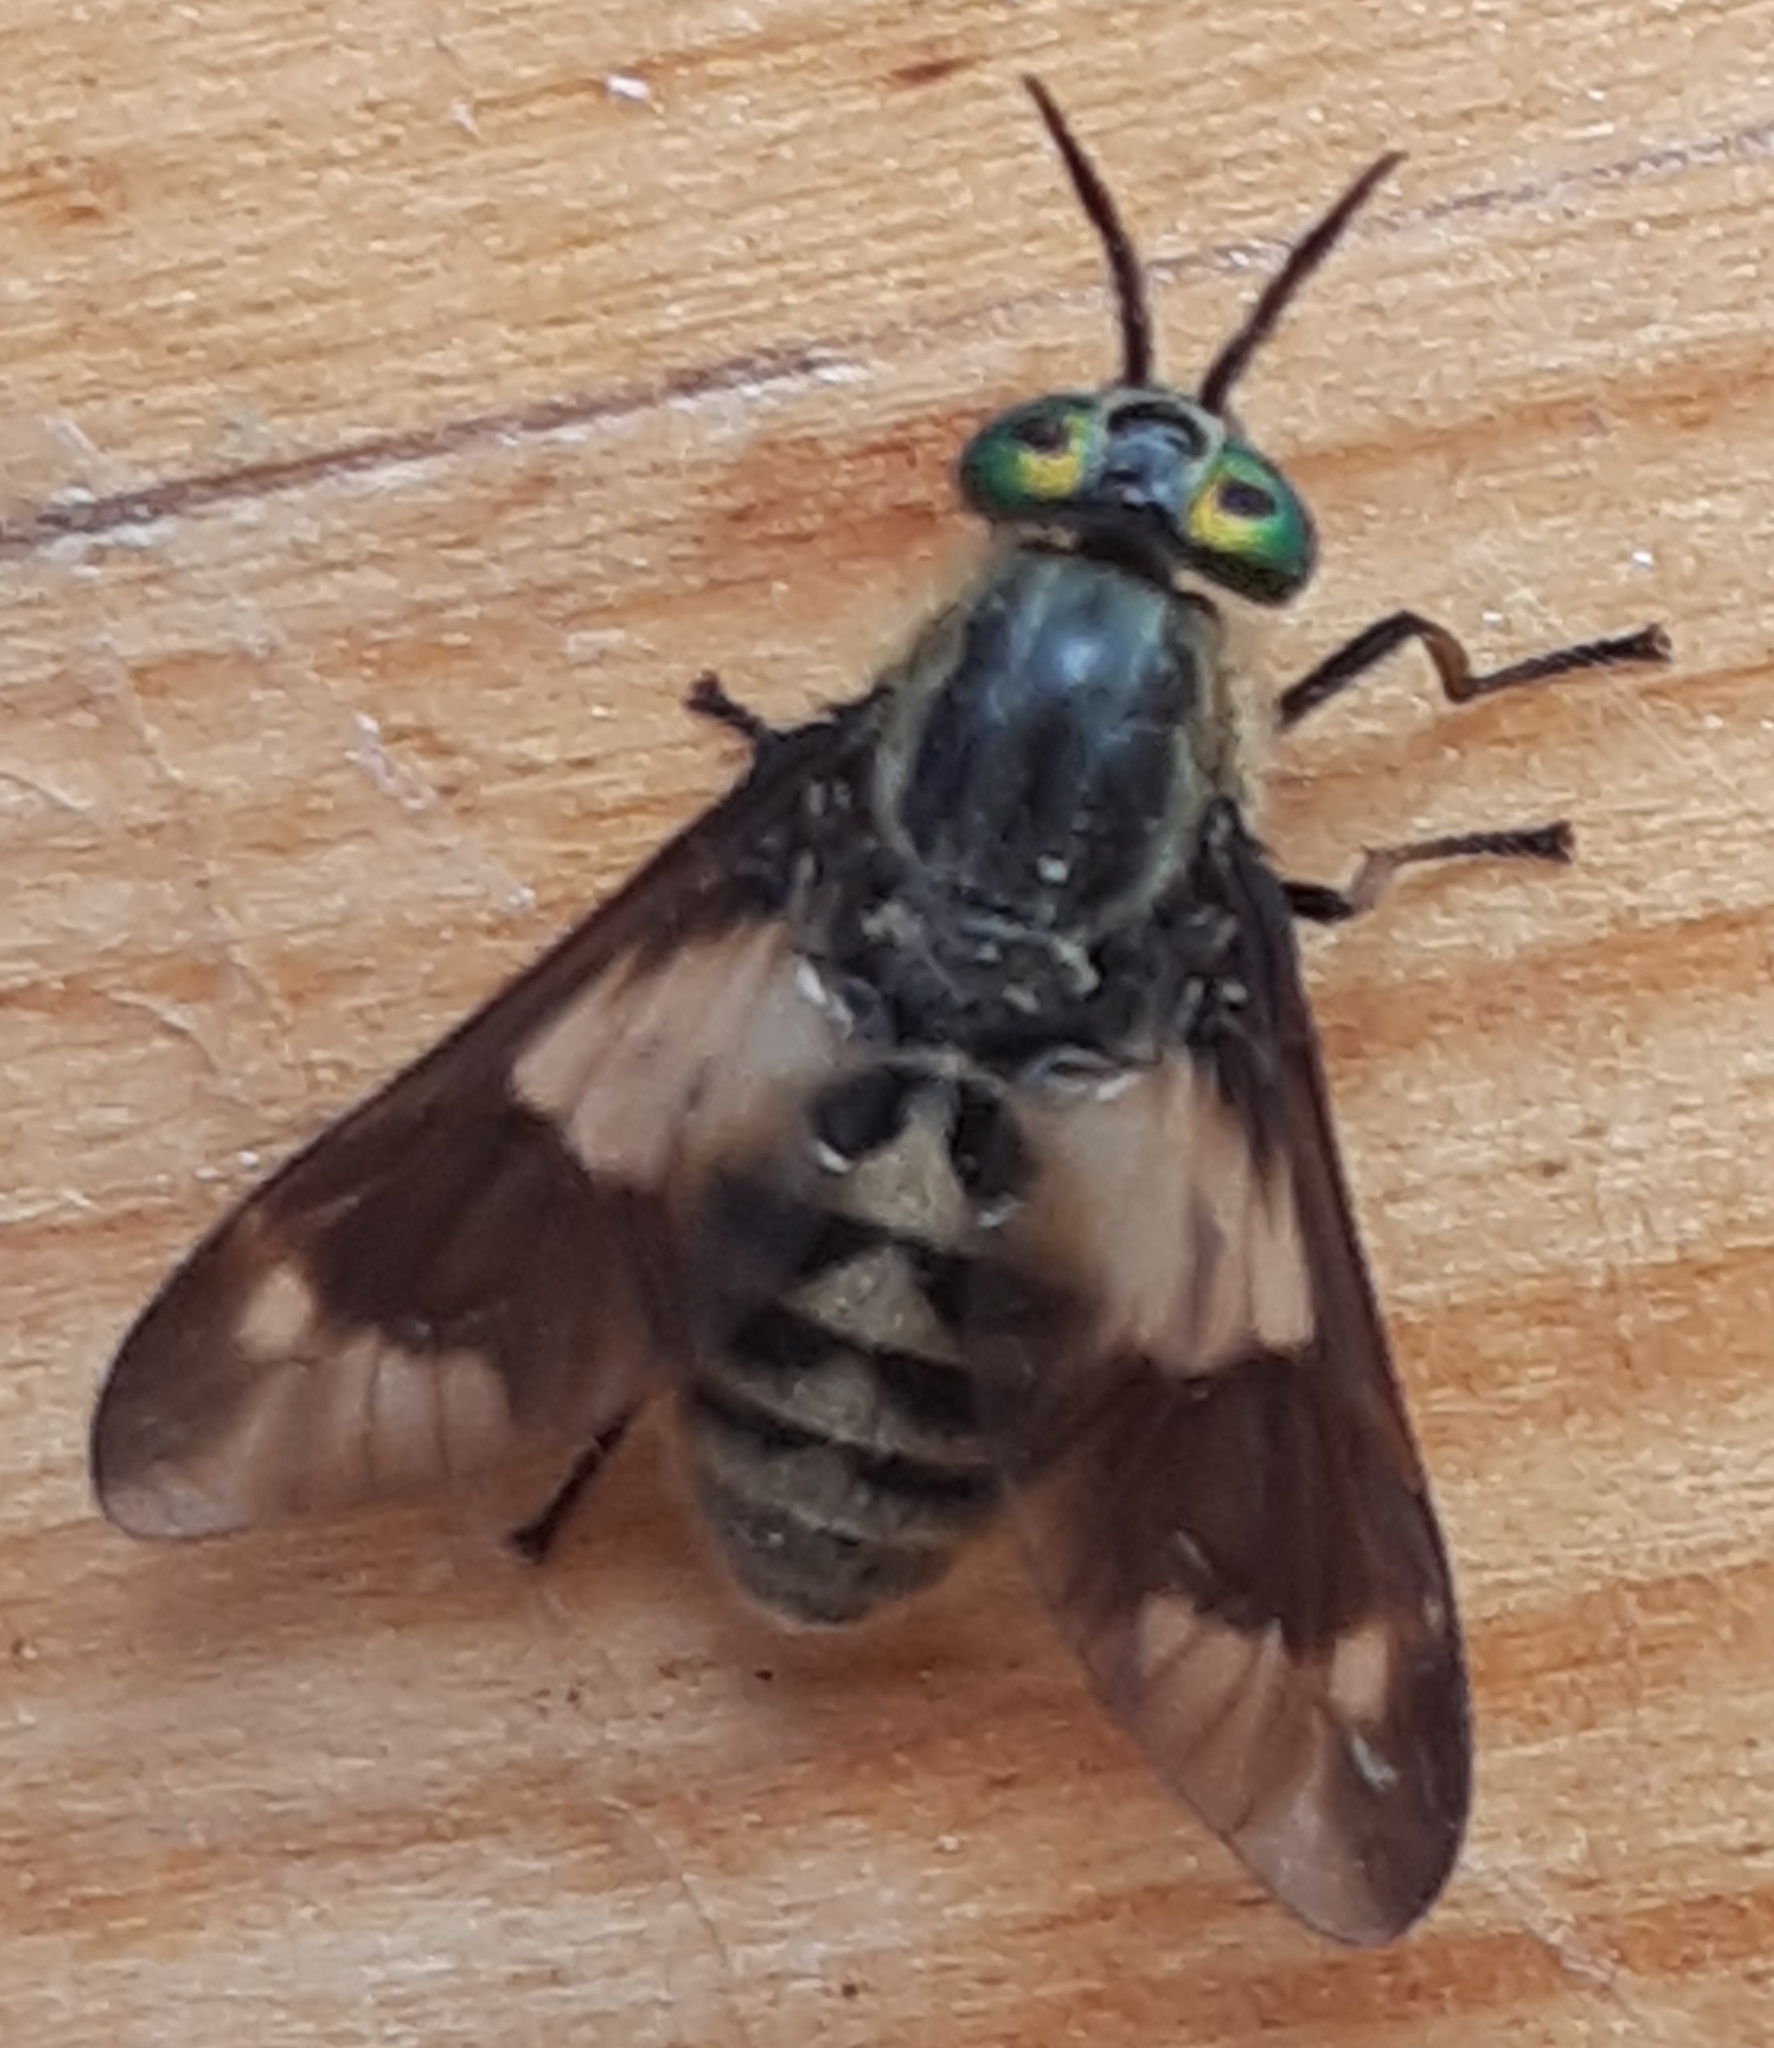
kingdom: Animalia
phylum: Arthropoda
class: Insecta
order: Diptera
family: Tabanidae
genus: Chrysops
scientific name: Chrysops relictus
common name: Twin-lobed deerfly
